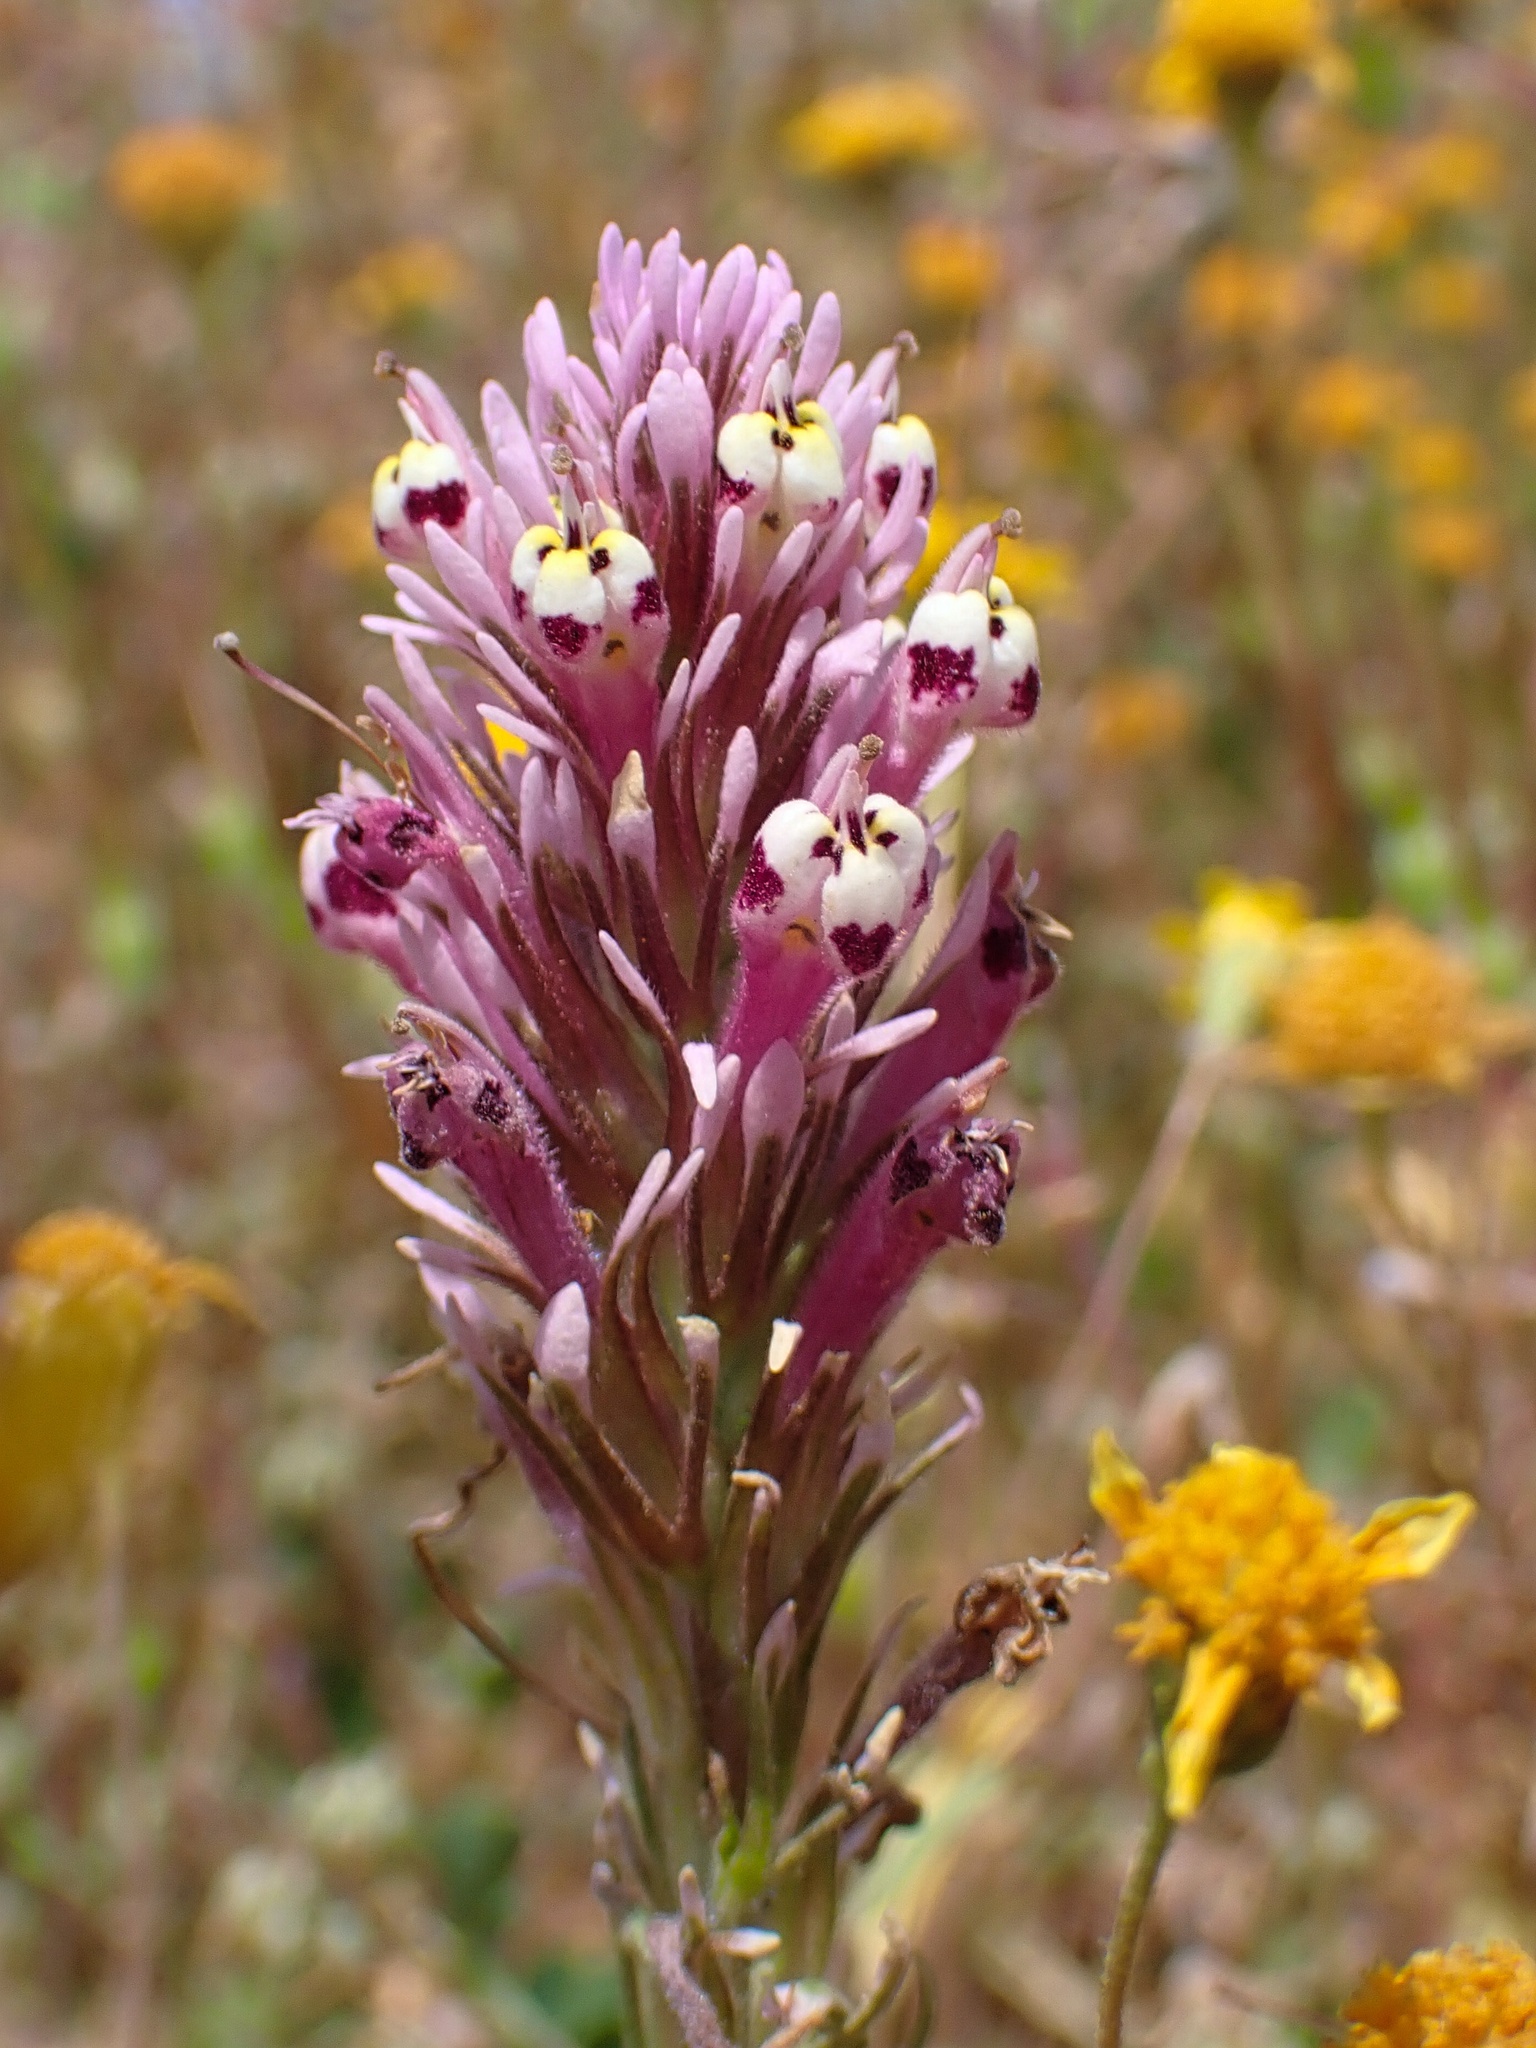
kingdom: Plantae
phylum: Tracheophyta
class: Magnoliopsida
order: Lamiales
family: Orobanchaceae
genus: Castilleja
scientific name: Castilleja densiflora
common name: Dense-flower indian paintbrush
